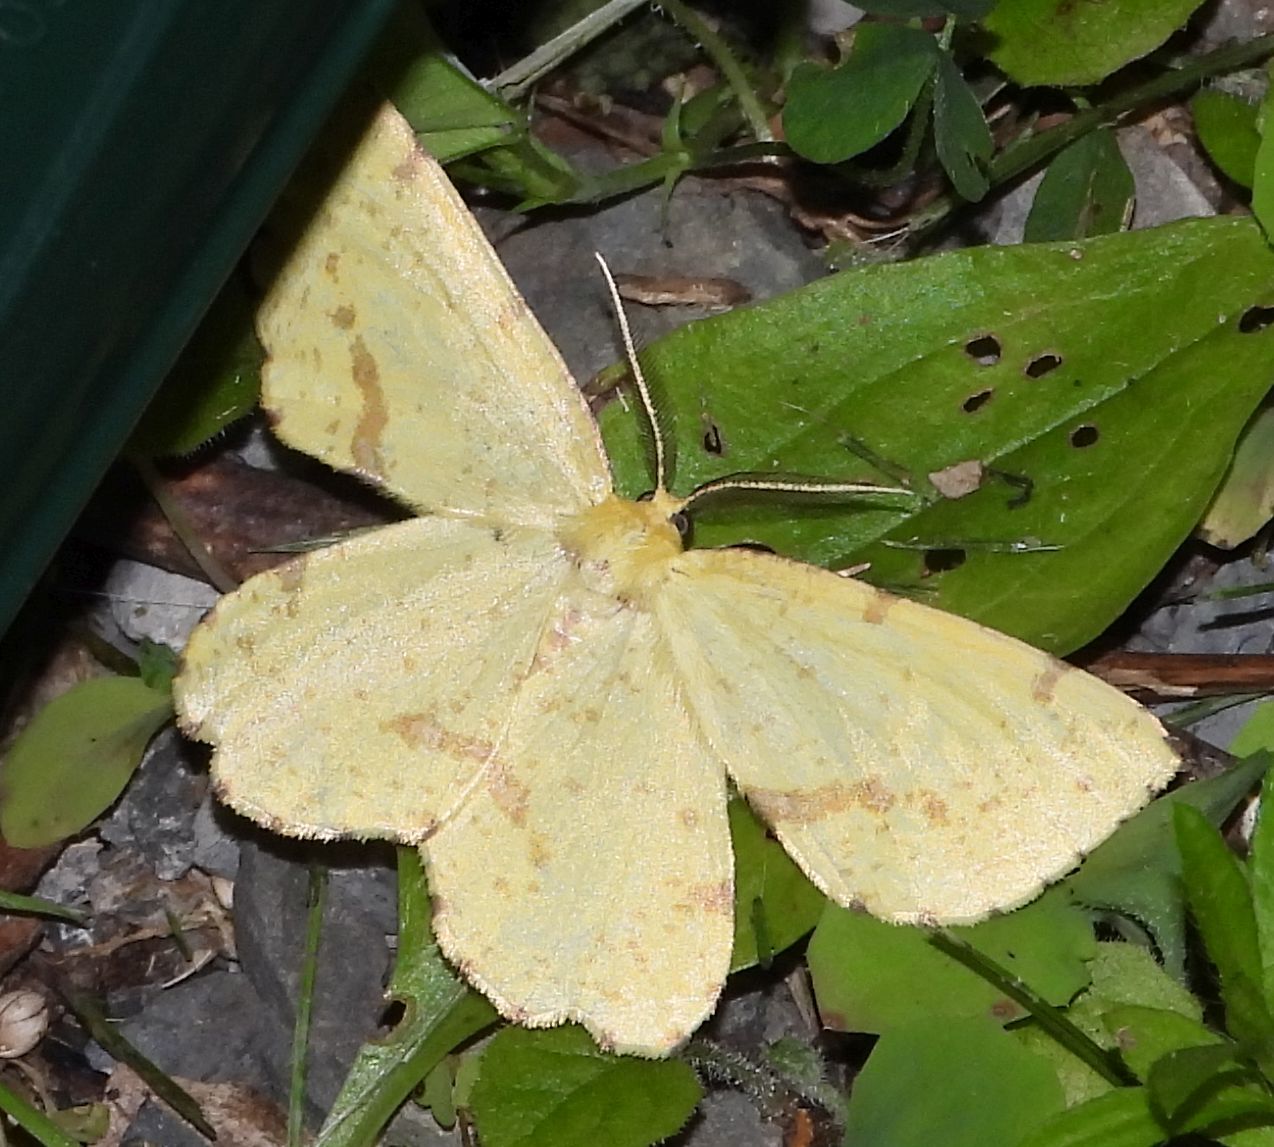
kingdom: Animalia
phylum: Arthropoda
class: Insecta
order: Lepidoptera
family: Geometridae
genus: Xanthotype
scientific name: Xanthotype
